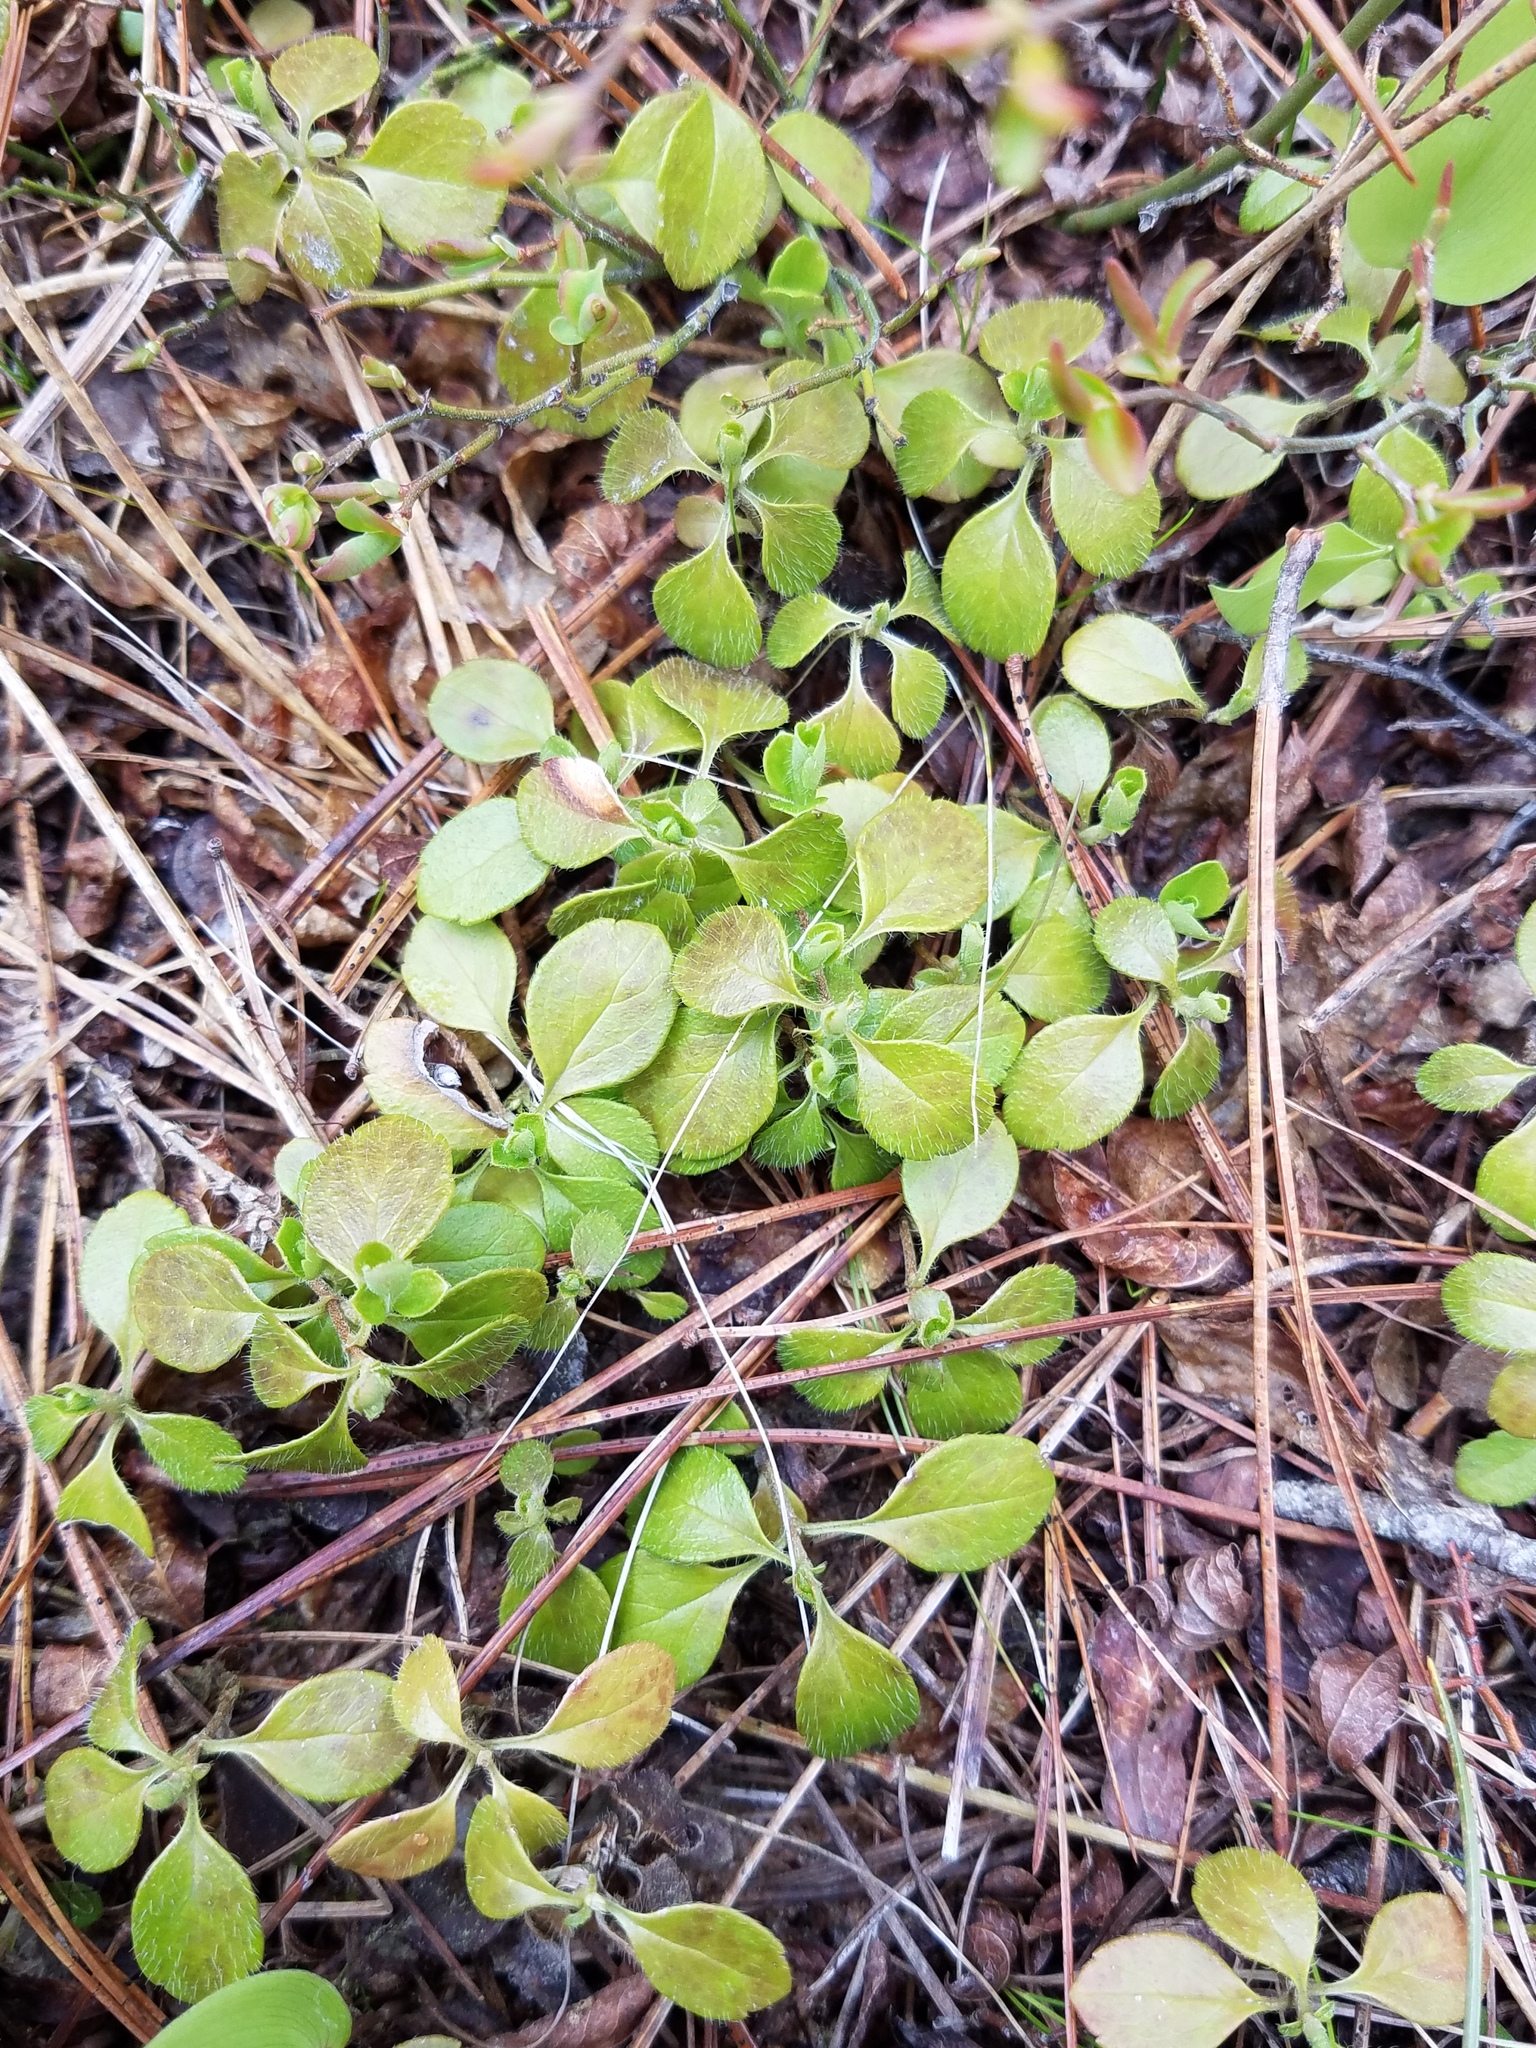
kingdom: Plantae
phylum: Tracheophyta
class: Magnoliopsida
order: Dipsacales
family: Caprifoliaceae
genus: Linnaea
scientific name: Linnaea borealis
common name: Twinflower
